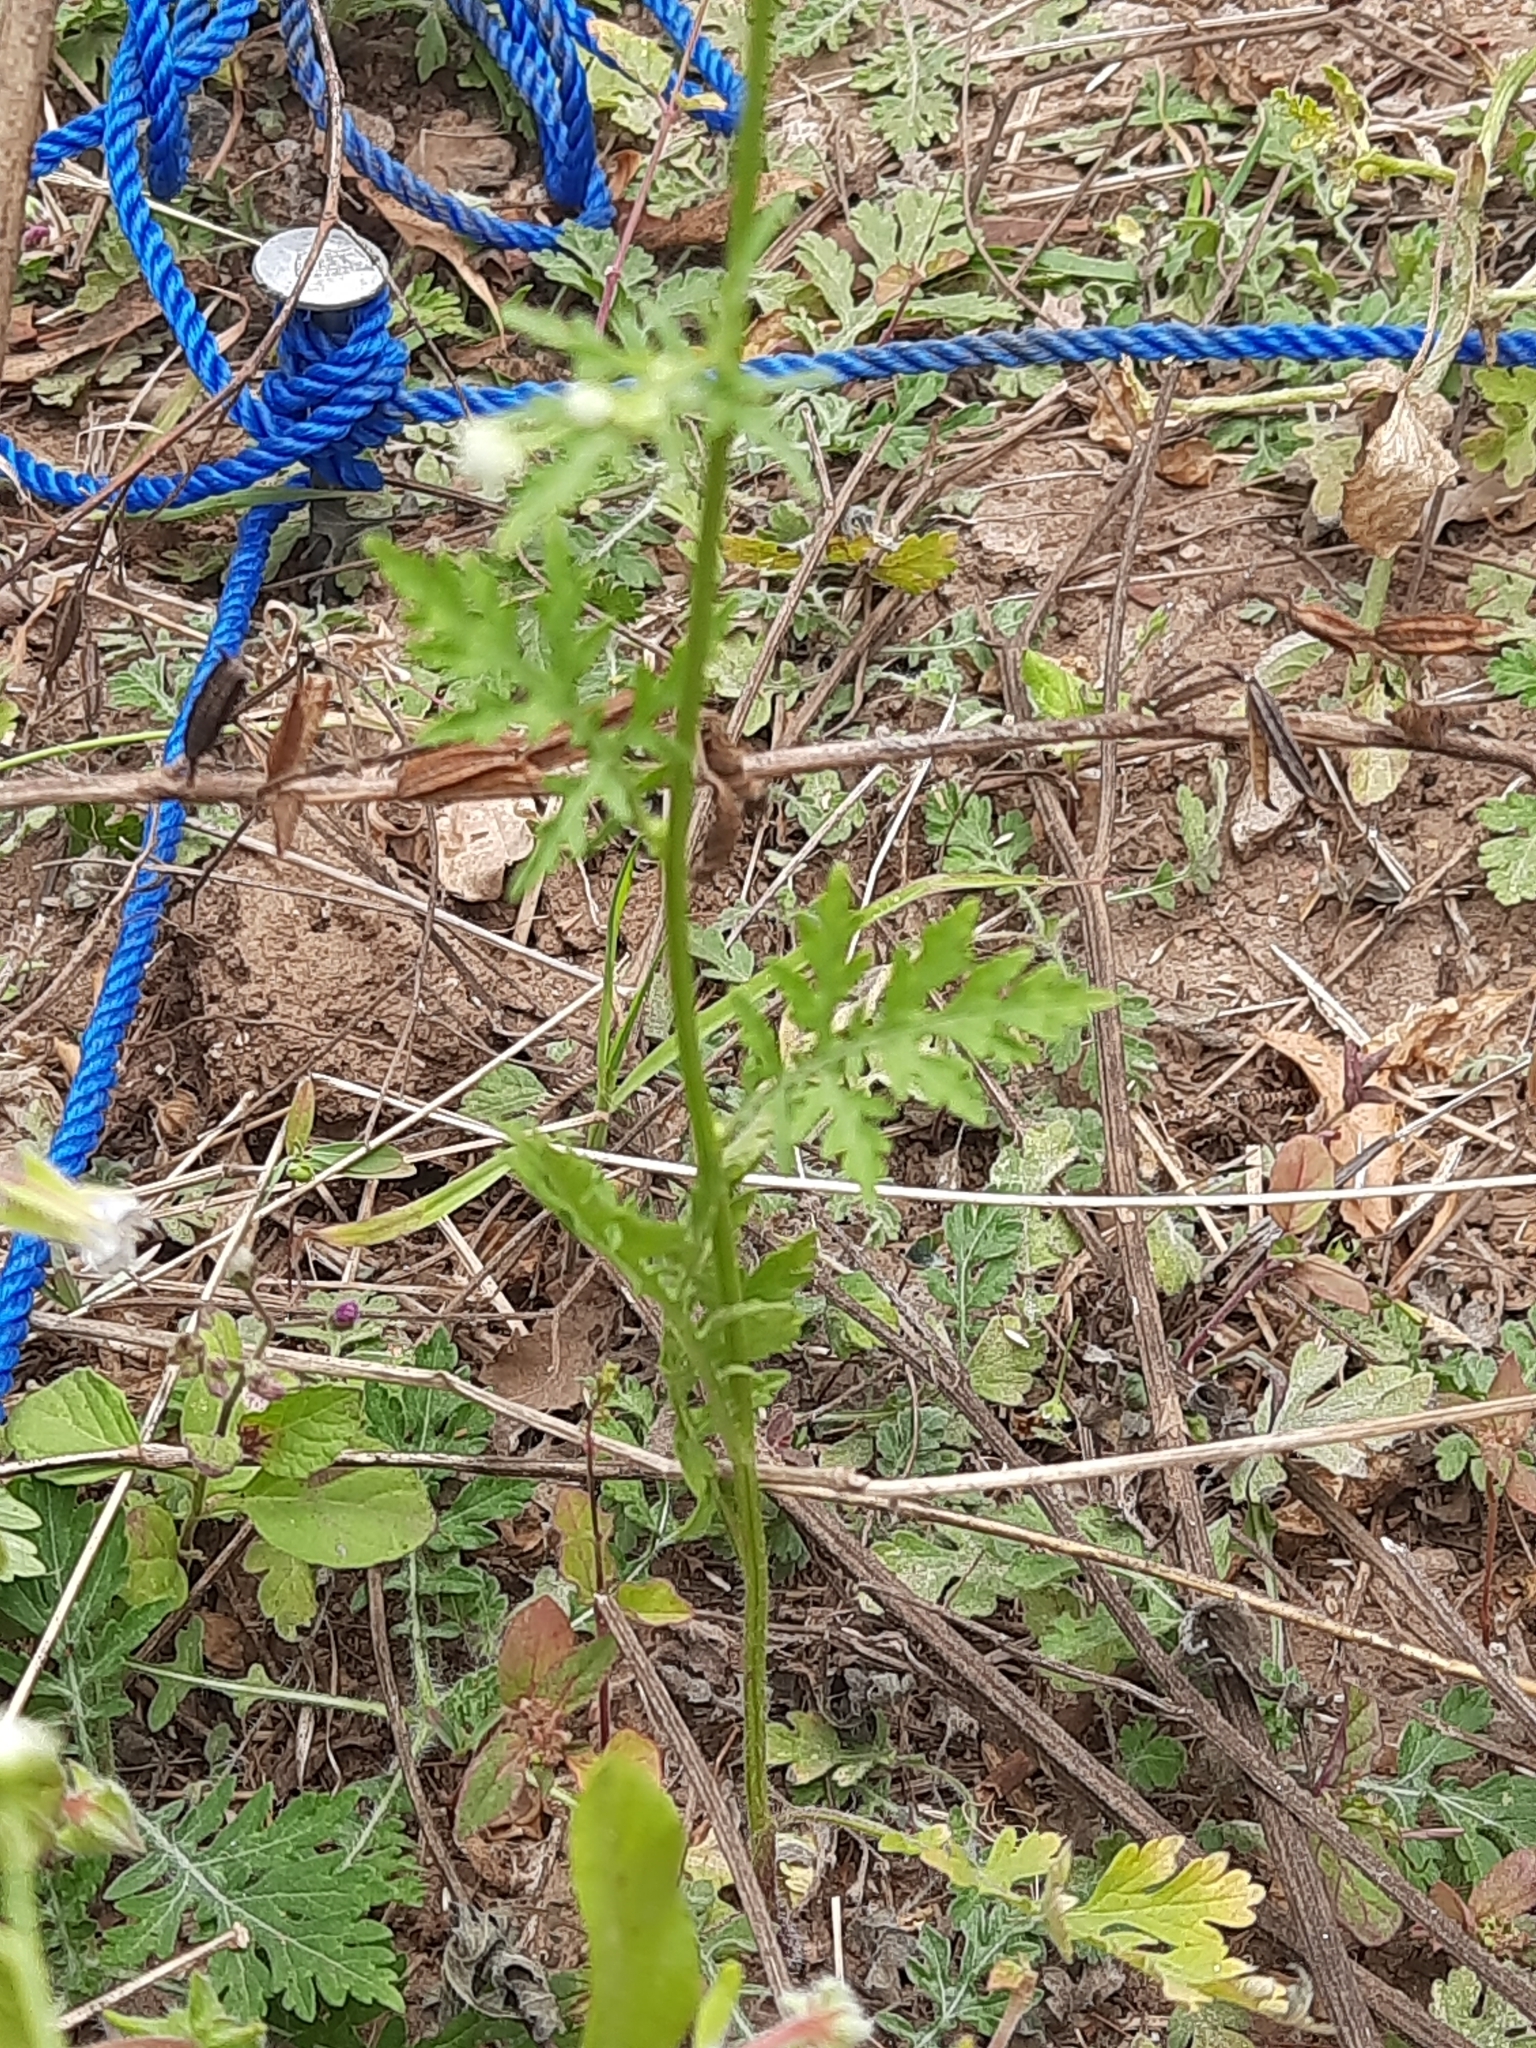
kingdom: Plantae
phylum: Tracheophyta
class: Magnoliopsida
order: Asterales
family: Asteraceae
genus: Parthenium
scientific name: Parthenium hysterophorus
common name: Santa maria feverfew
